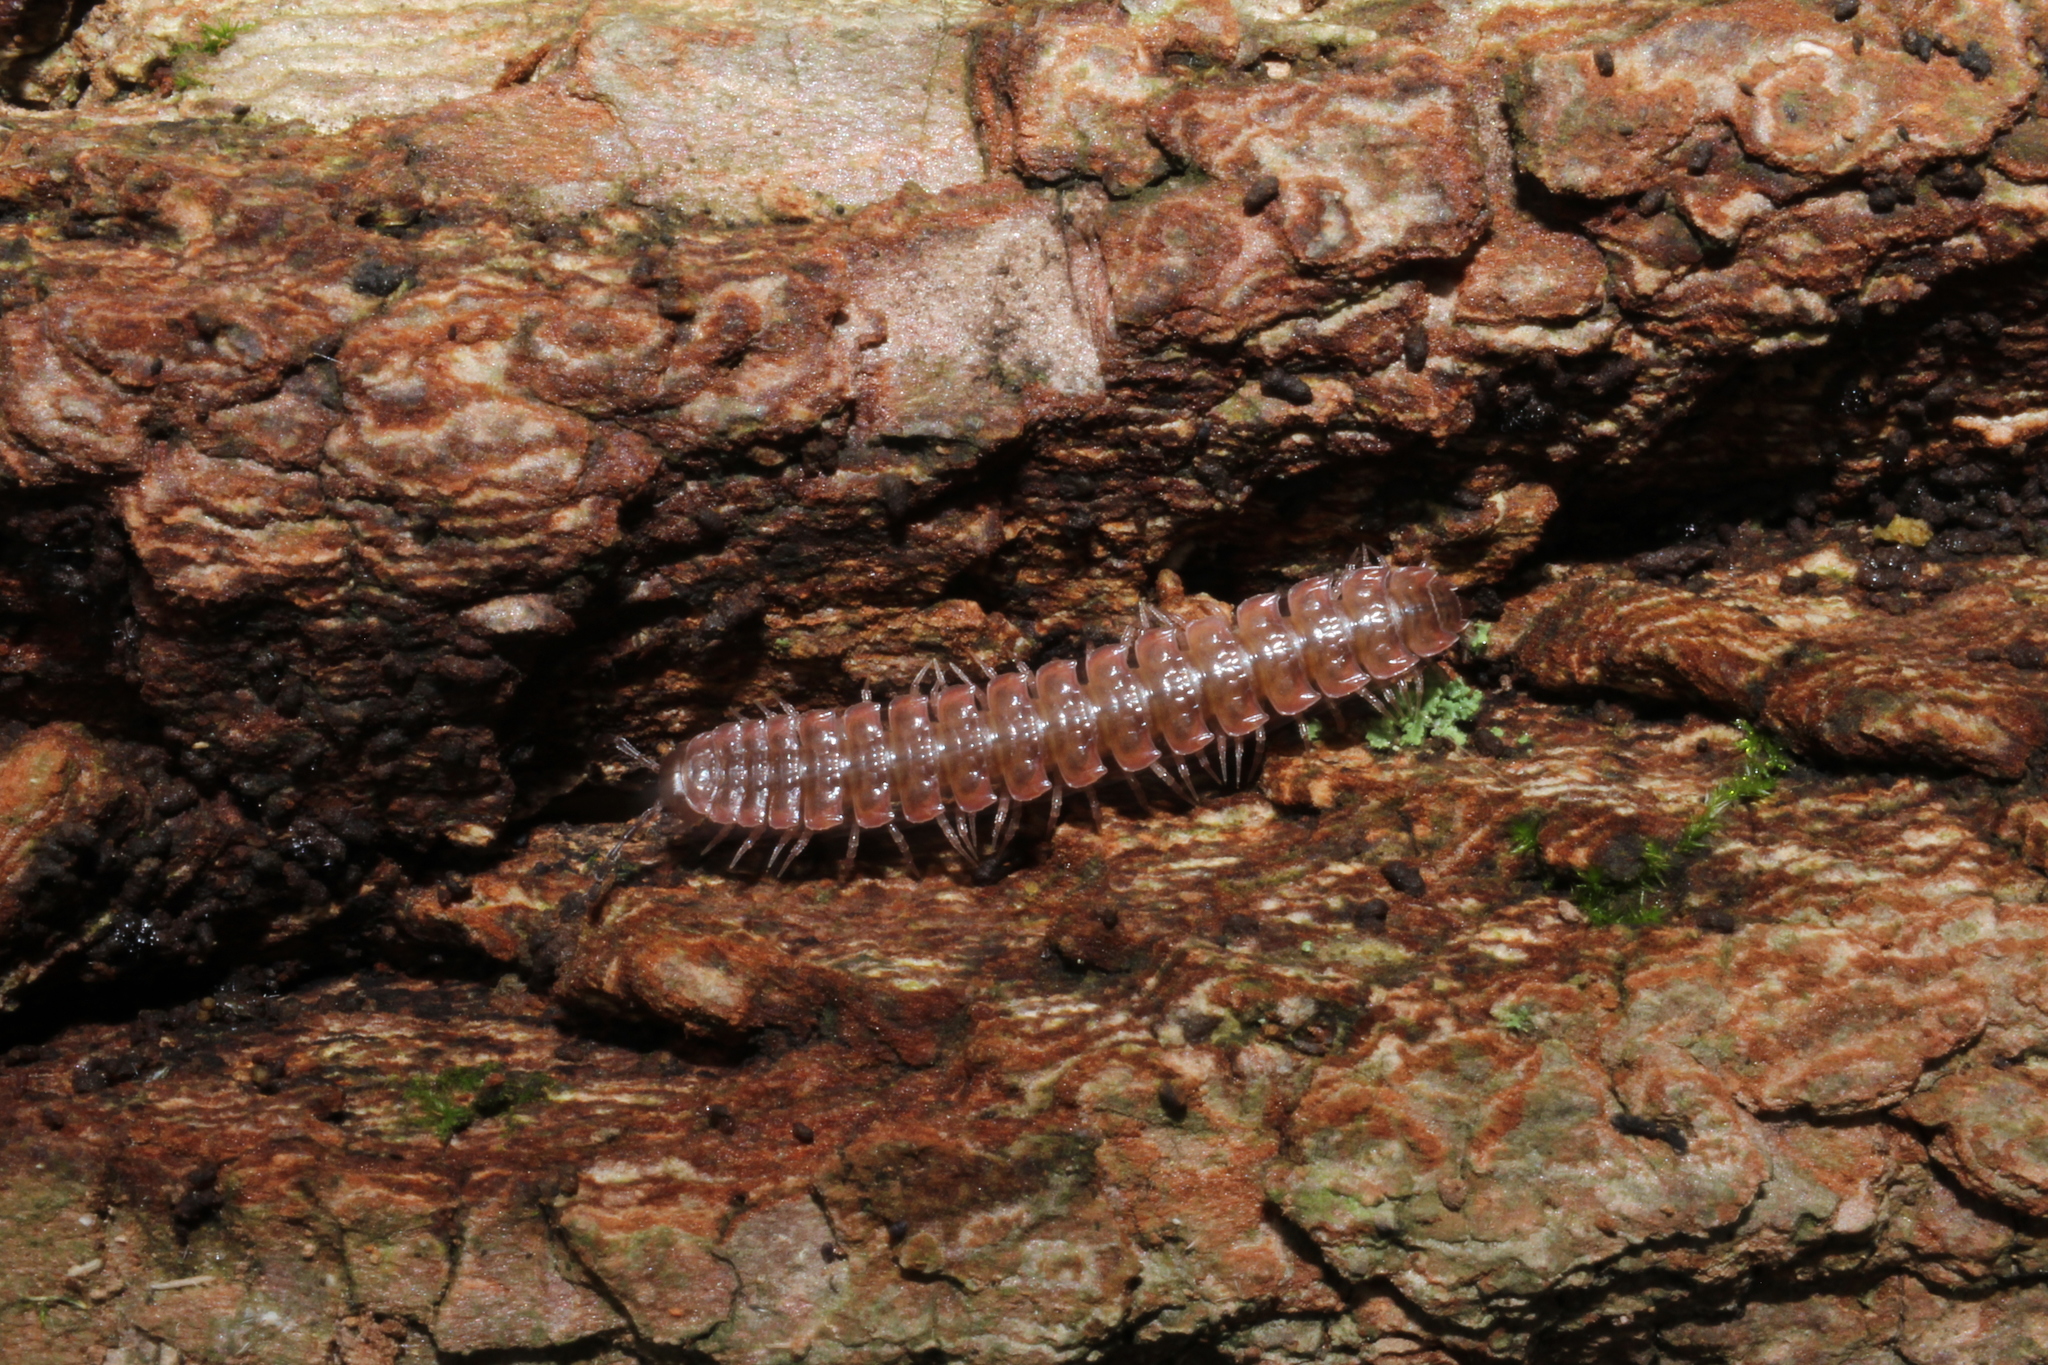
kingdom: Animalia
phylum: Arthropoda
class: Diplopoda
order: Polydesmida
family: Polydesmidae
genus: Pseudopolydesmus
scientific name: Pseudopolydesmus serratus
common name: Common pink flat-back millipede
